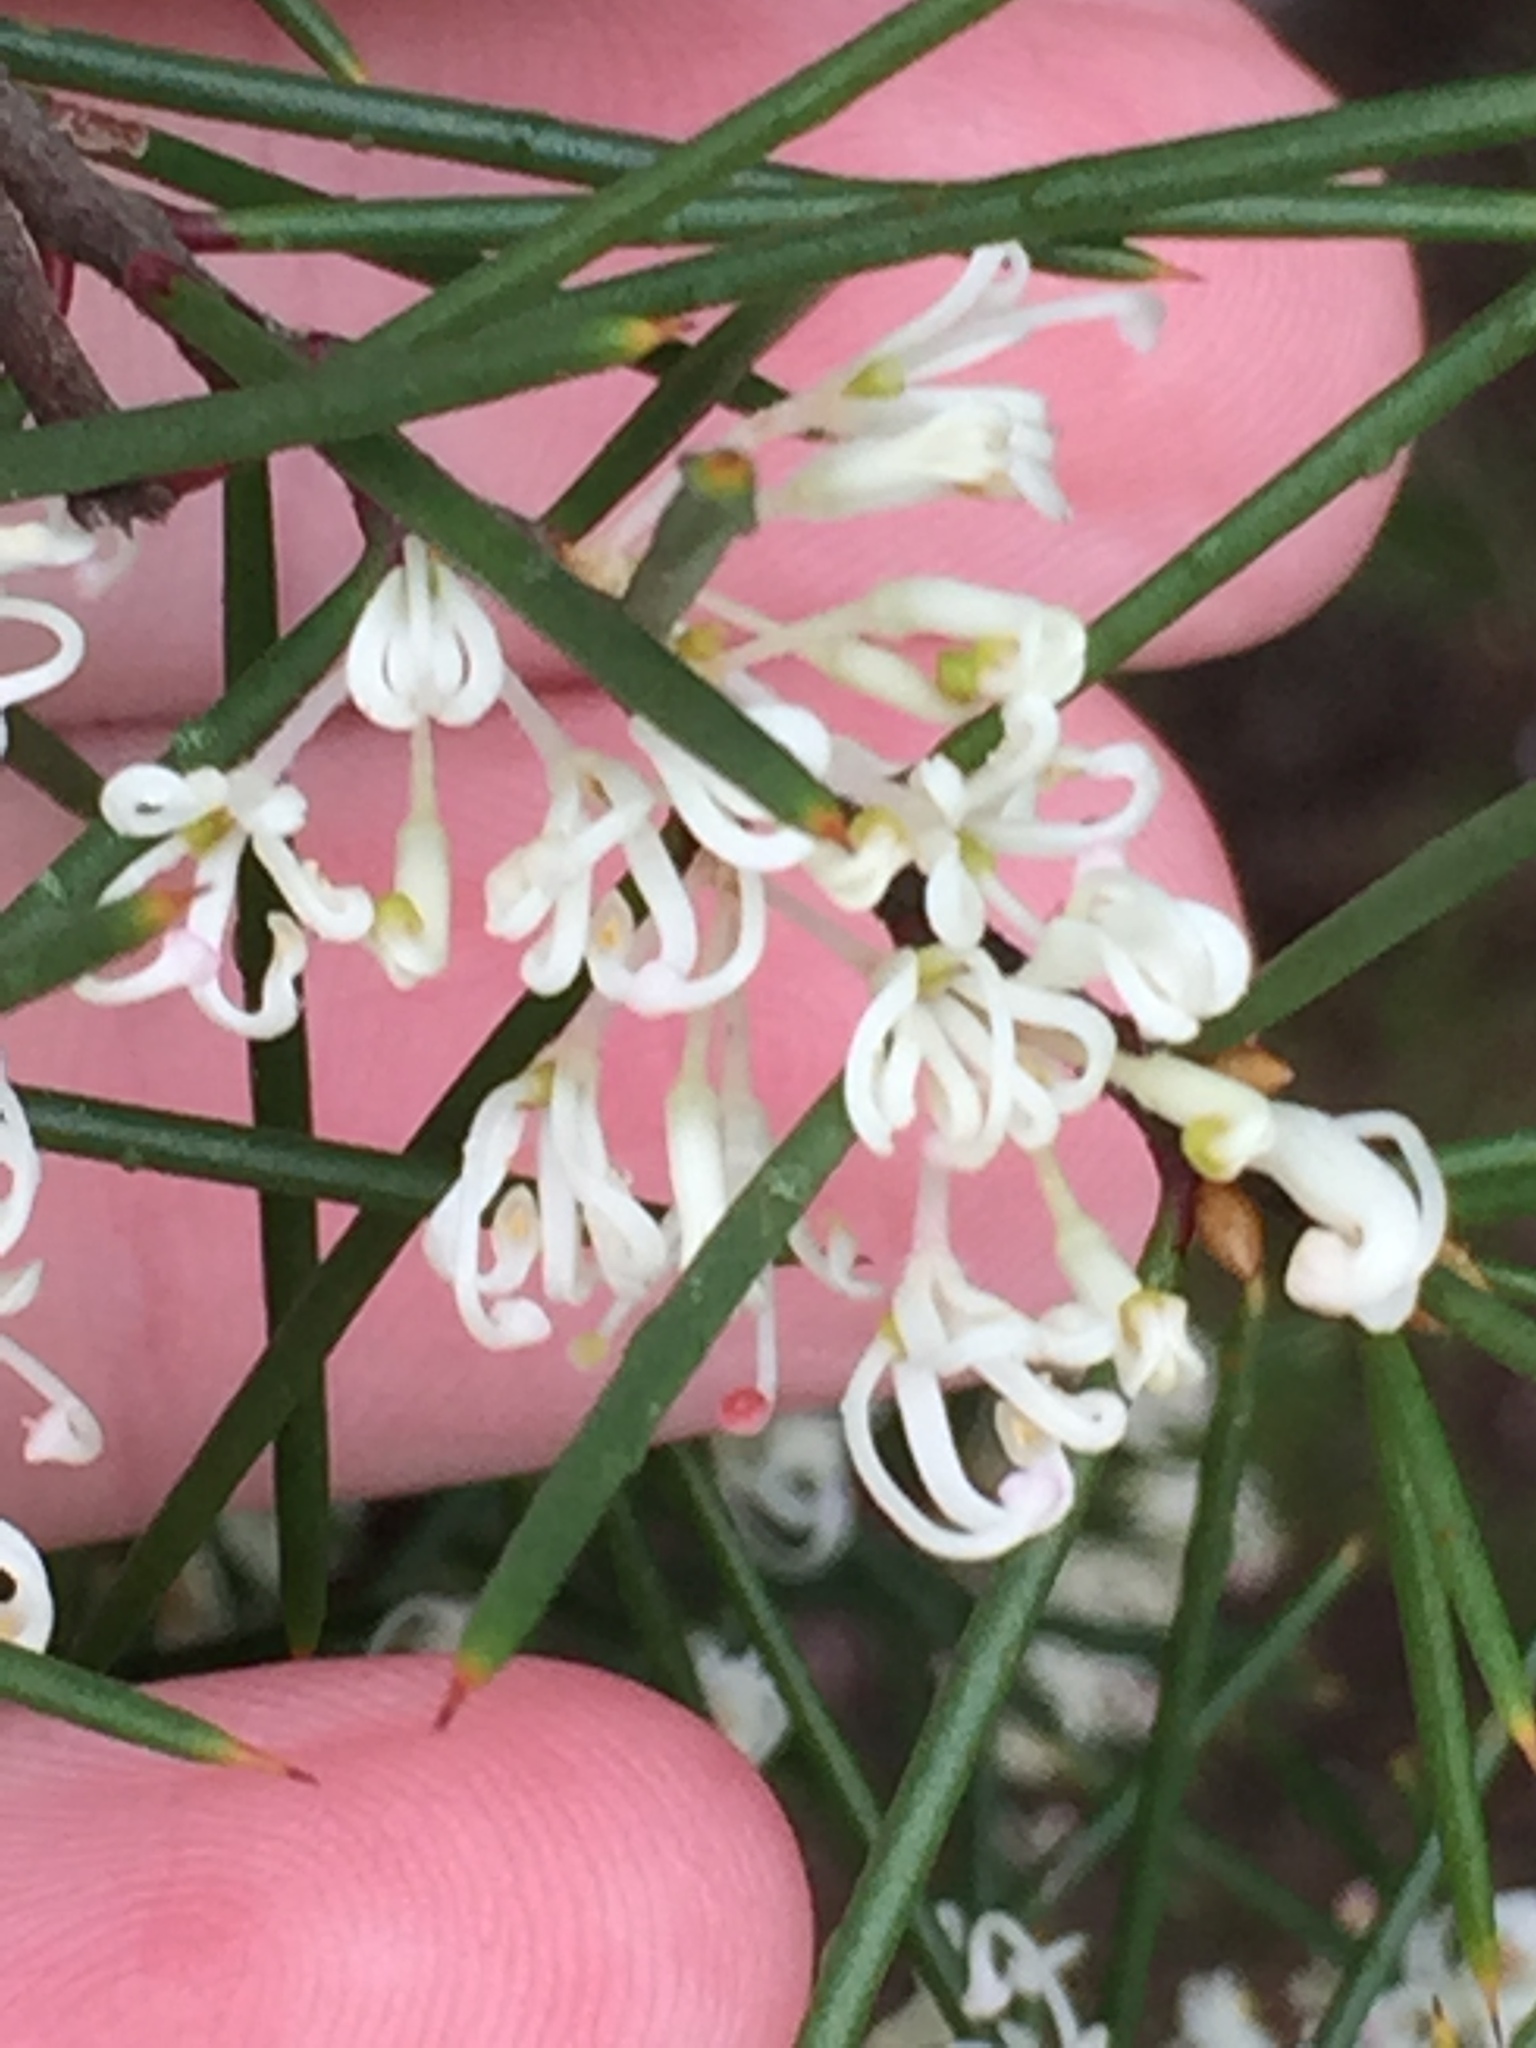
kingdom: Plantae
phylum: Tracheophyta
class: Magnoliopsida
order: Proteales
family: Proteaceae
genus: Hakea
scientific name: Hakea sericea
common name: Needle bush
